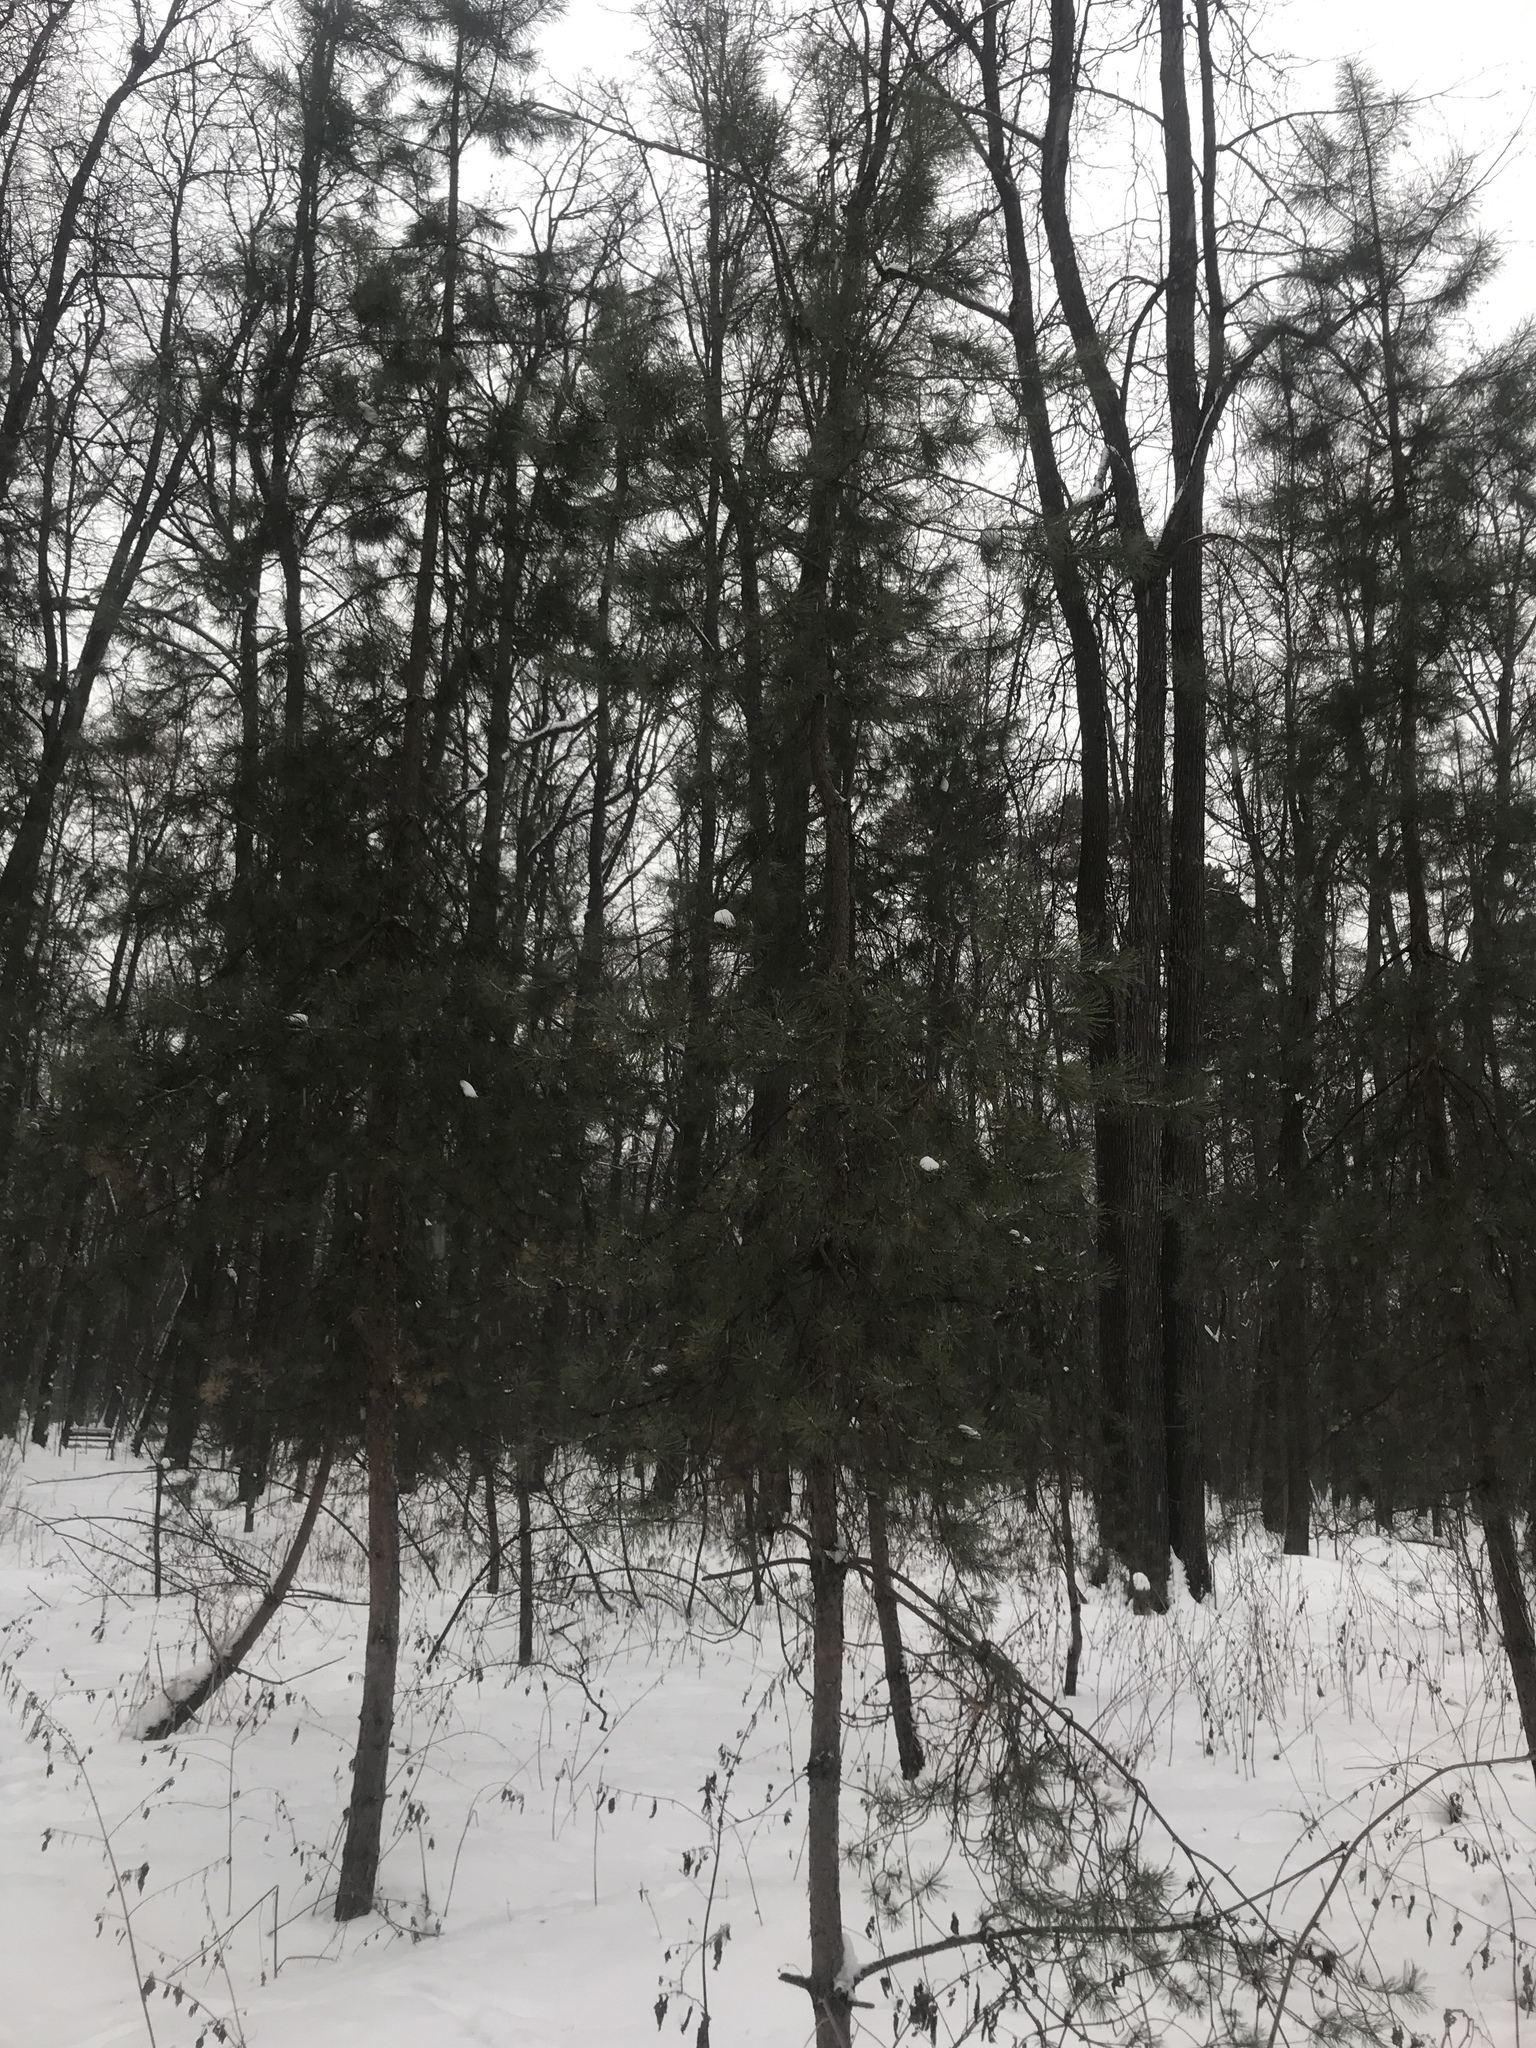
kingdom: Plantae
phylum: Tracheophyta
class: Pinopsida
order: Pinales
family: Pinaceae
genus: Pinus
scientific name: Pinus sylvestris
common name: Scots pine
